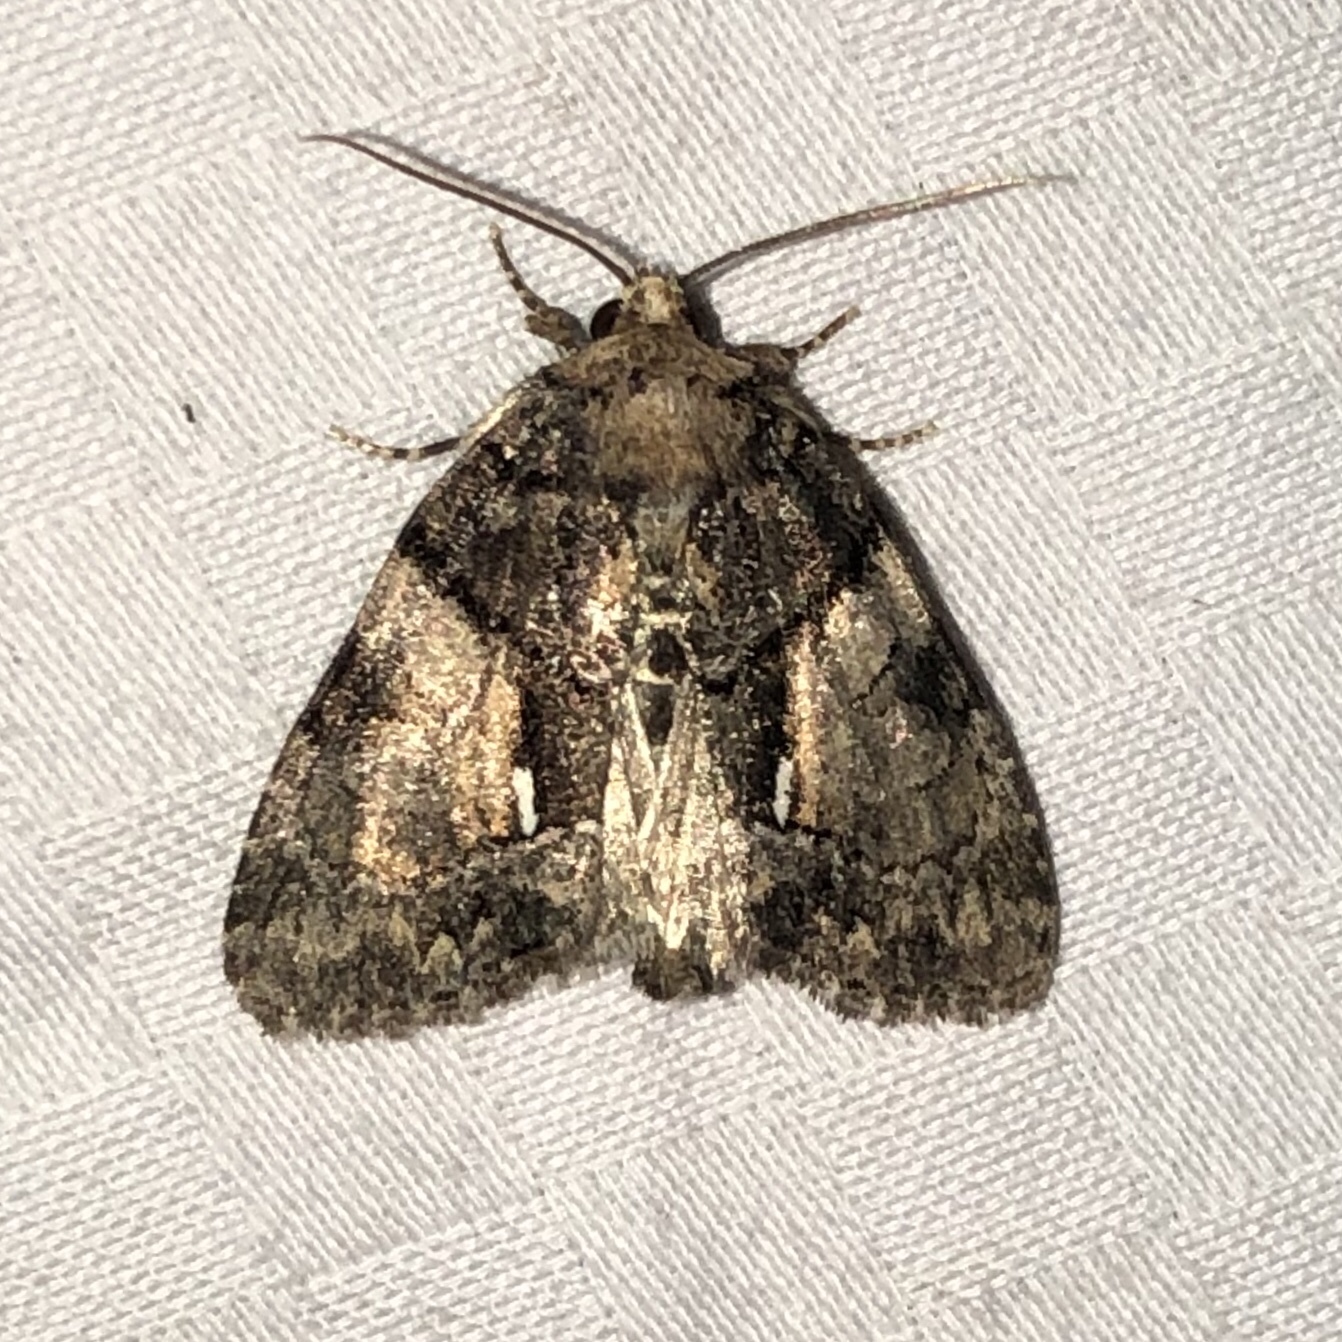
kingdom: Animalia
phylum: Arthropoda
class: Insecta
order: Lepidoptera
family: Noctuidae
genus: Chytonix
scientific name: Chytonix palliatricula
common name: Cloaked marvel
